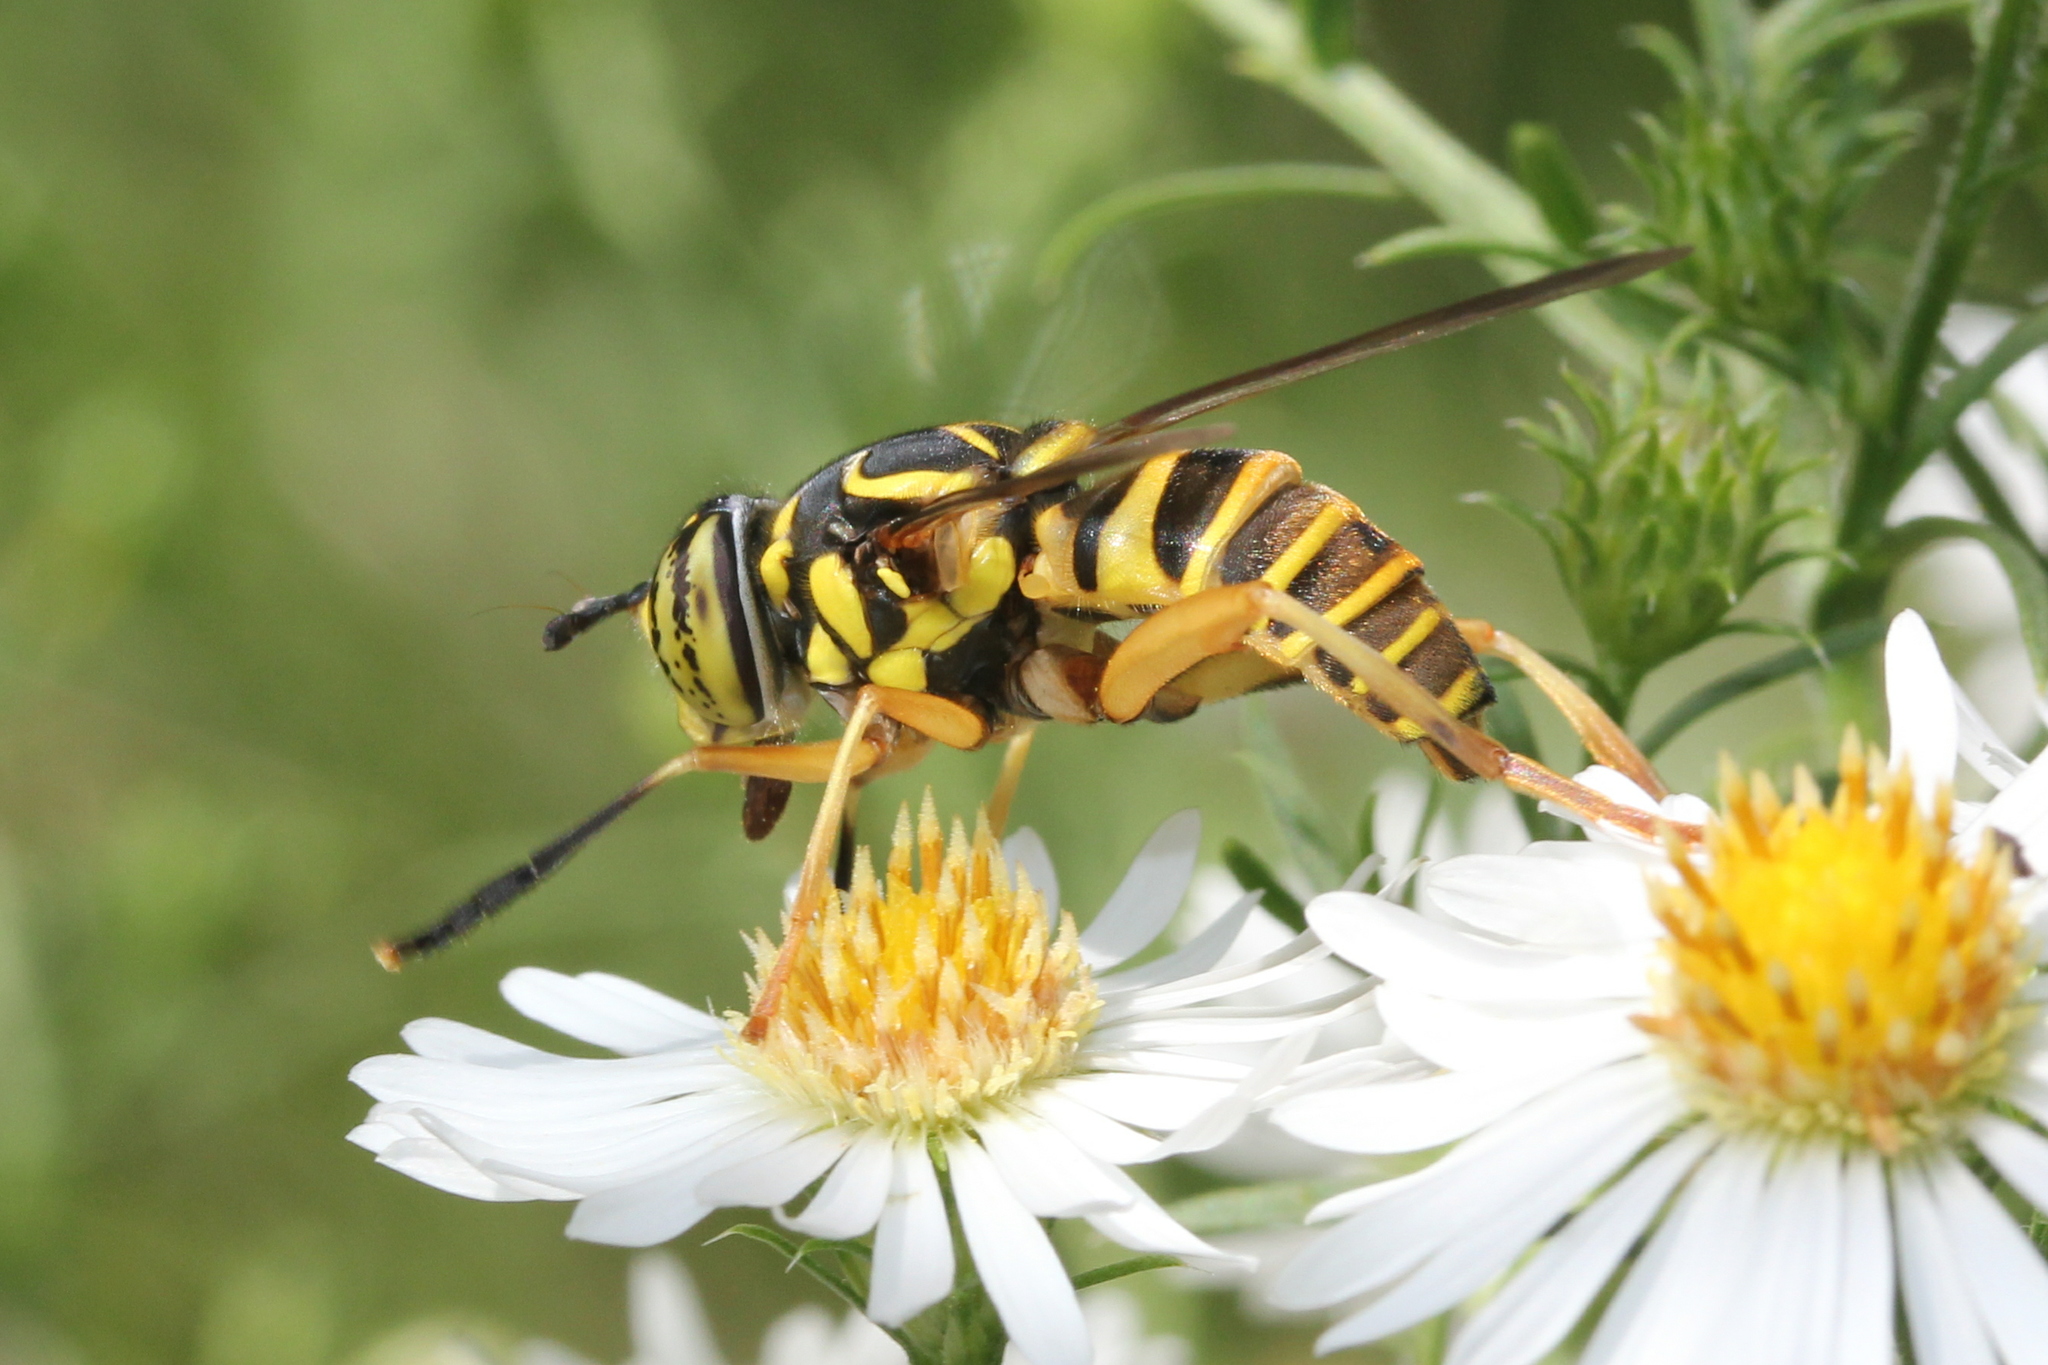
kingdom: Animalia
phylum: Arthropoda
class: Insecta
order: Diptera
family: Syrphidae
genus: Spilomyia
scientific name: Spilomyia longicornis
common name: Eastern hornet fly
